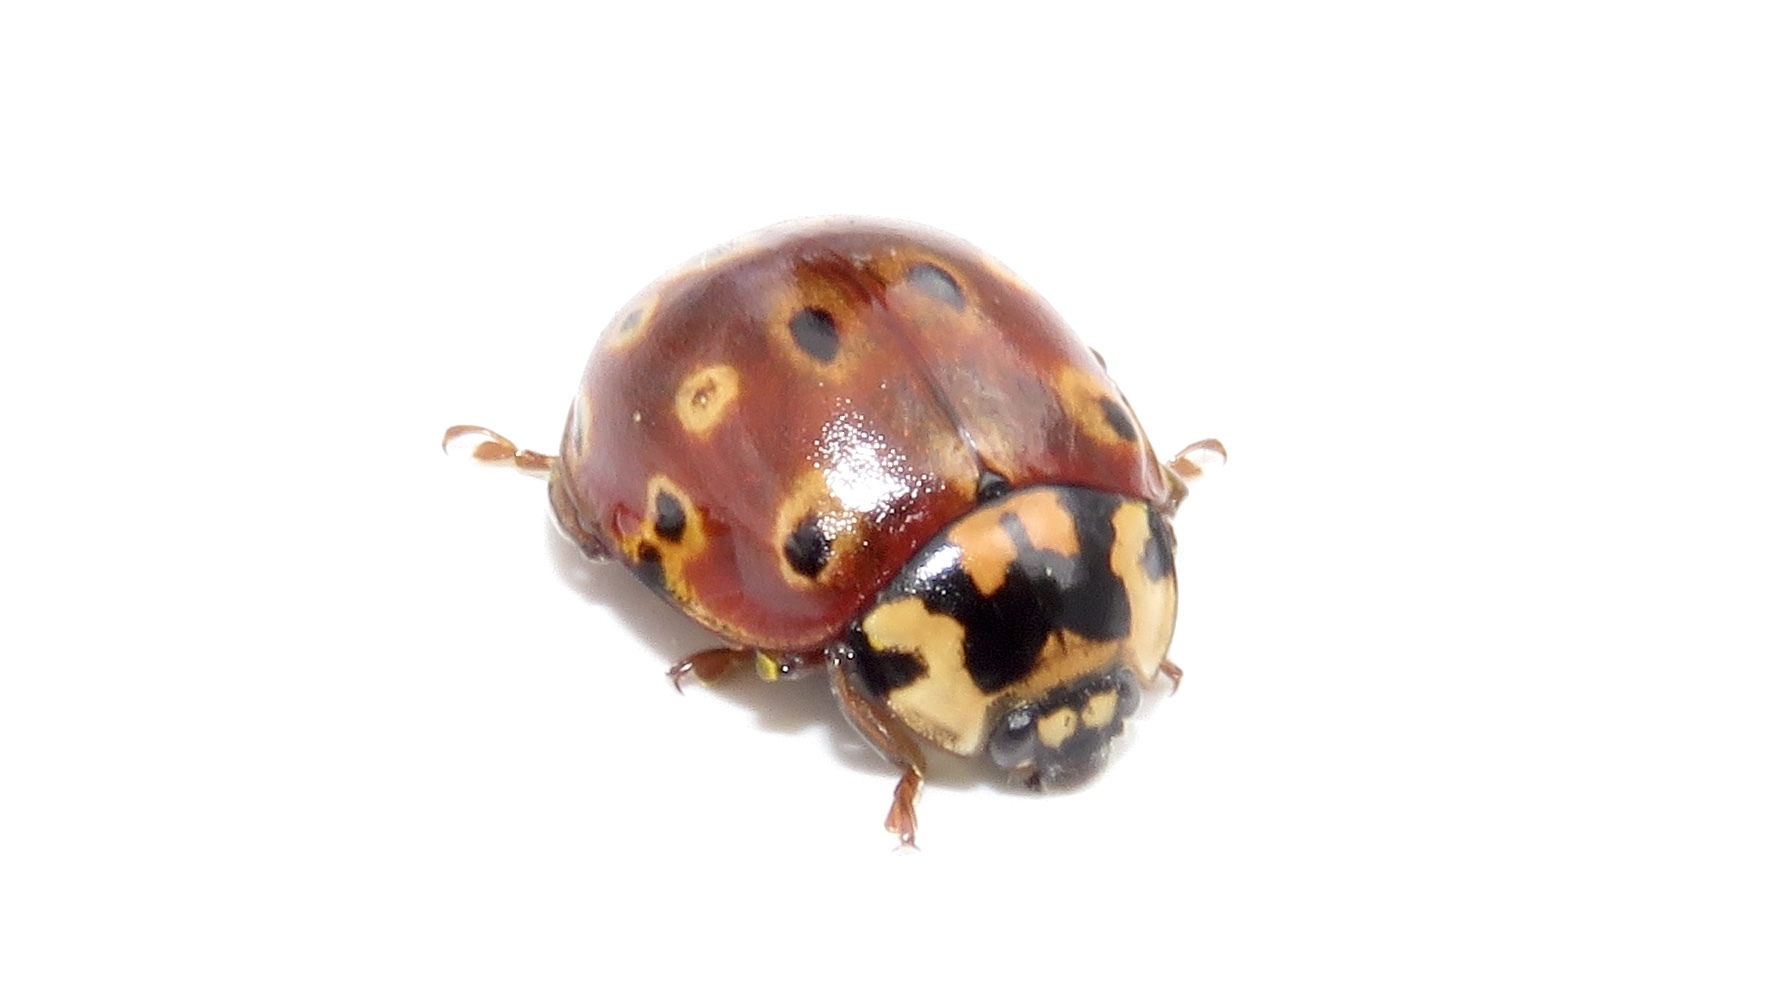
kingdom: Animalia
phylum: Arthropoda
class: Insecta
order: Coleoptera
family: Coccinellidae
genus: Anatis
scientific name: Anatis mali
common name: Eye-spotted lady beetle
